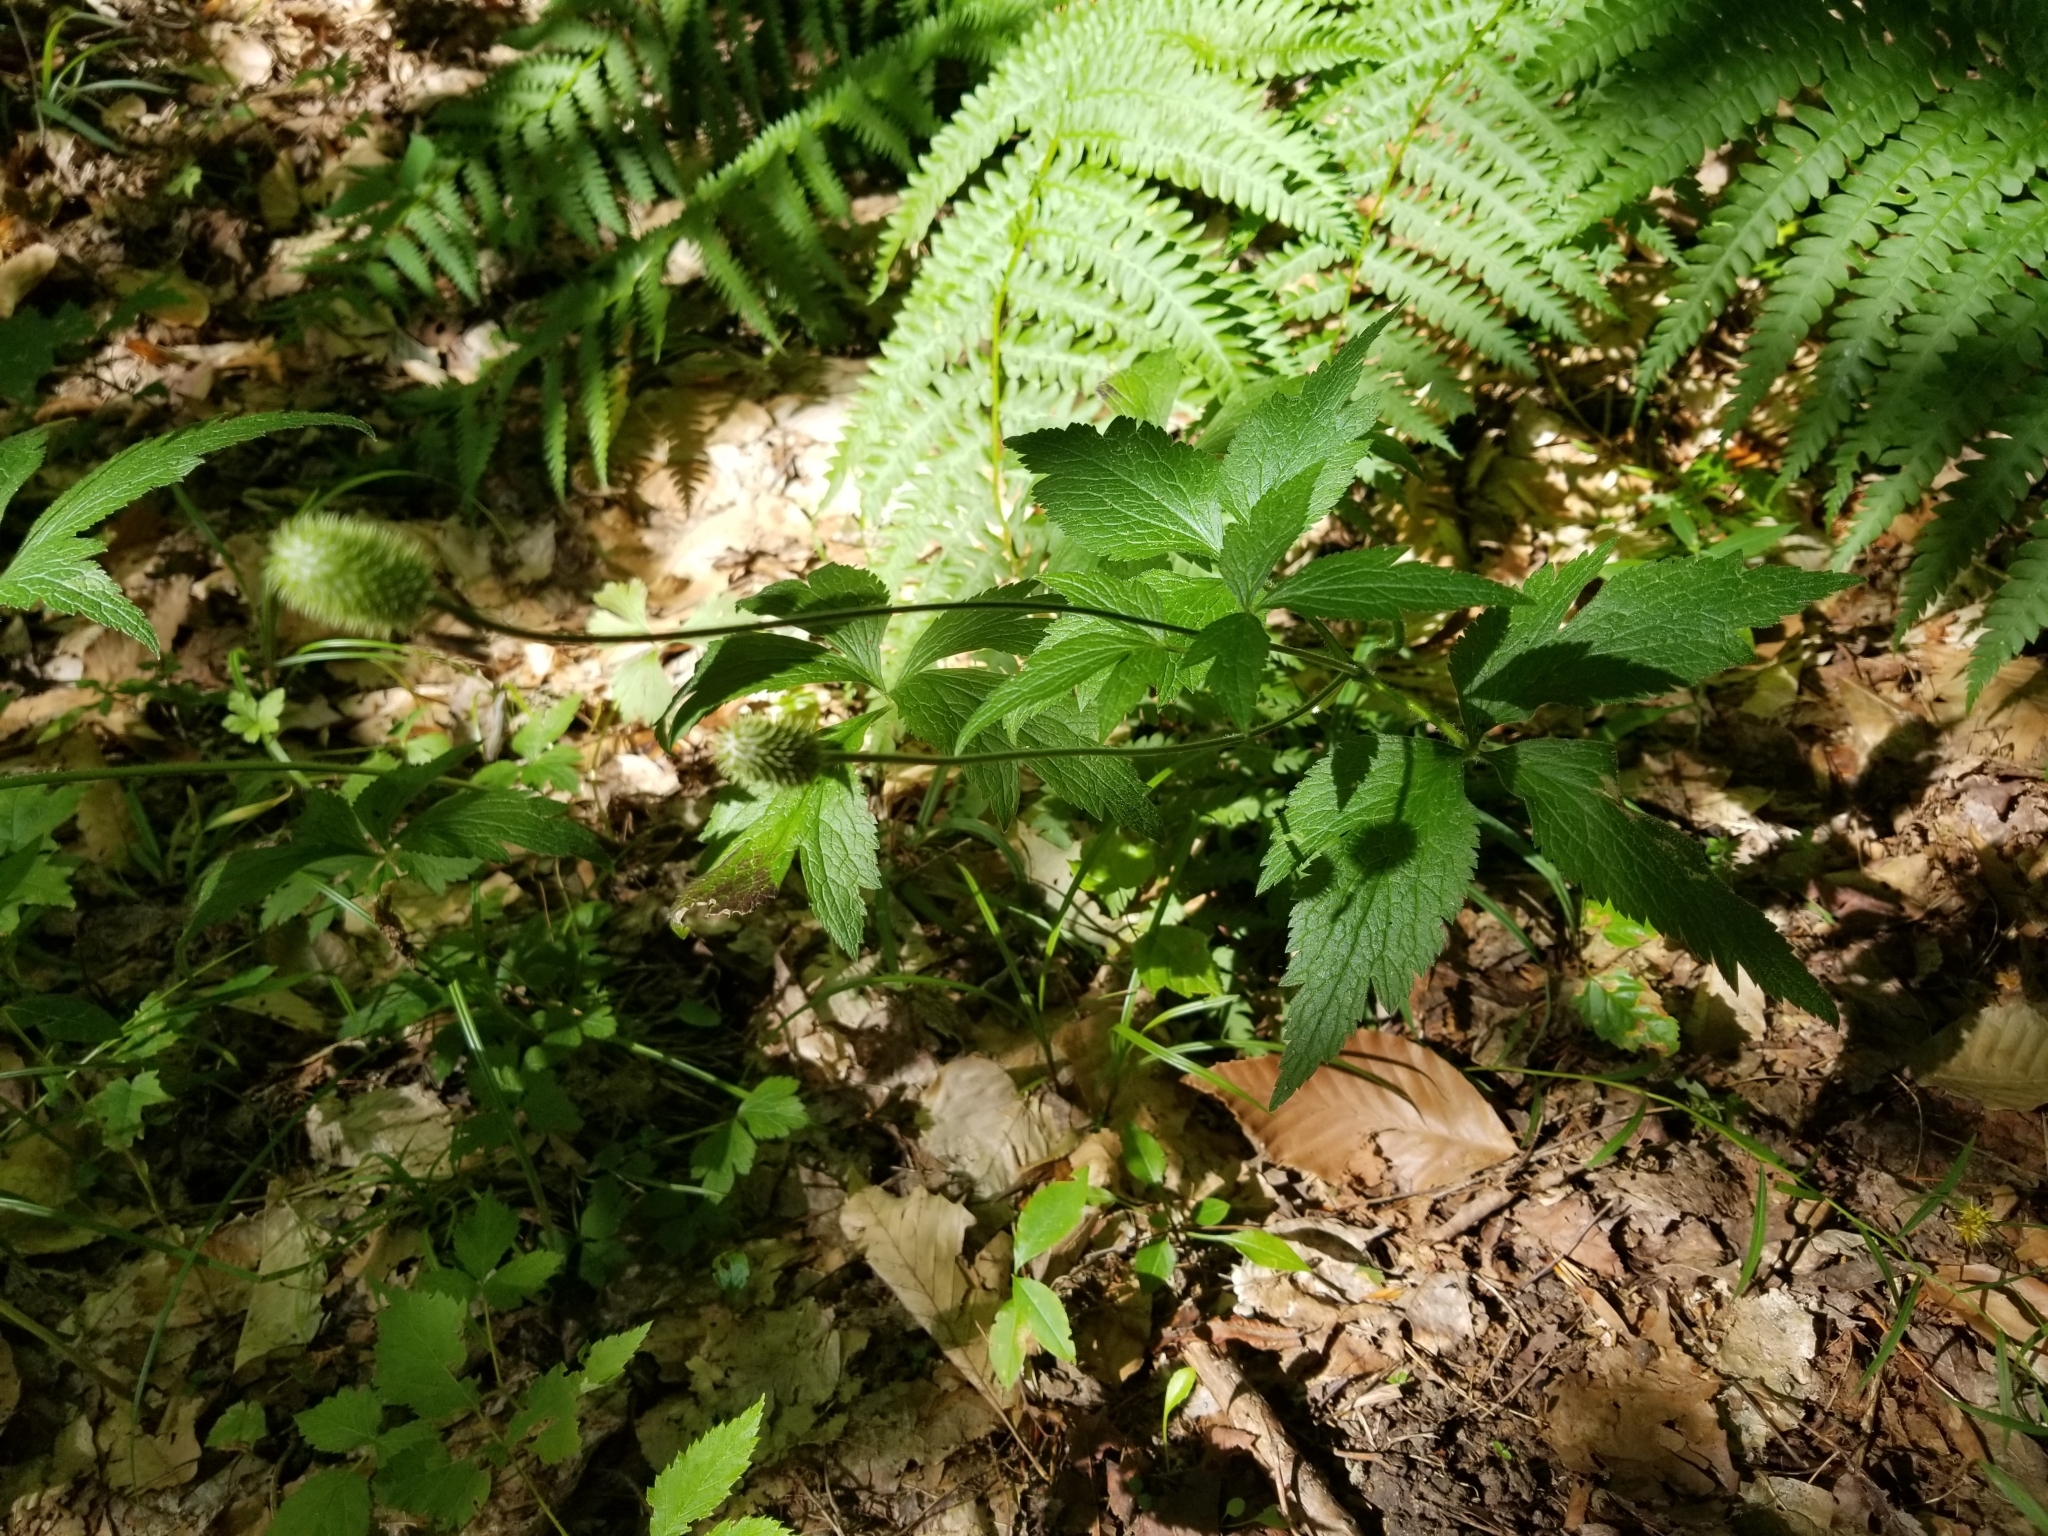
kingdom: Plantae
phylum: Tracheophyta
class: Magnoliopsida
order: Ranunculales
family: Ranunculaceae
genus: Anemone
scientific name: Anemone virginiana
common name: Tall anemone
